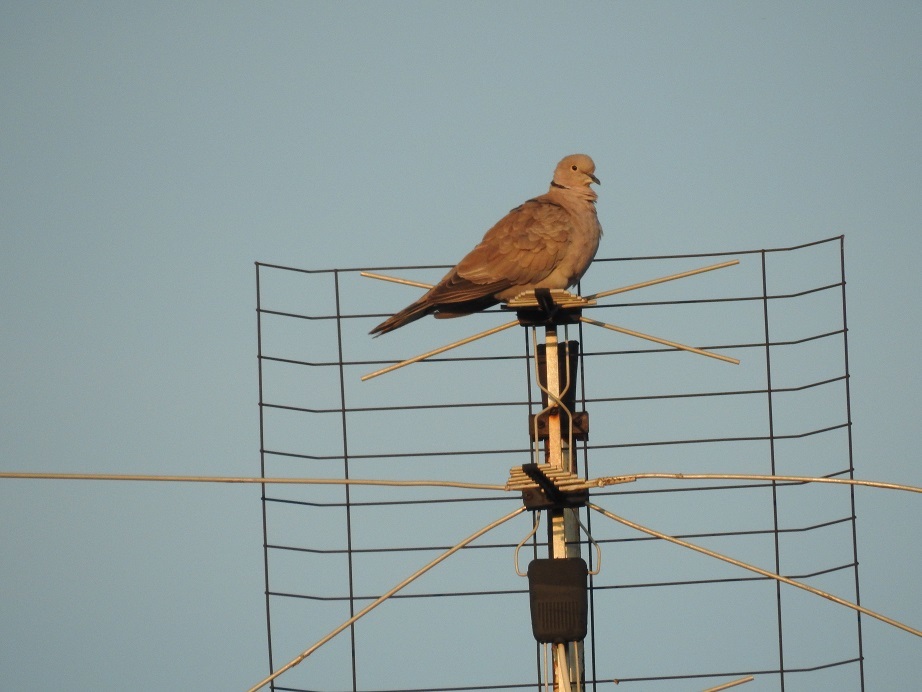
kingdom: Animalia
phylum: Chordata
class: Aves
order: Columbiformes
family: Columbidae
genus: Streptopelia
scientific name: Streptopelia decaocto
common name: Eurasian collared dove
